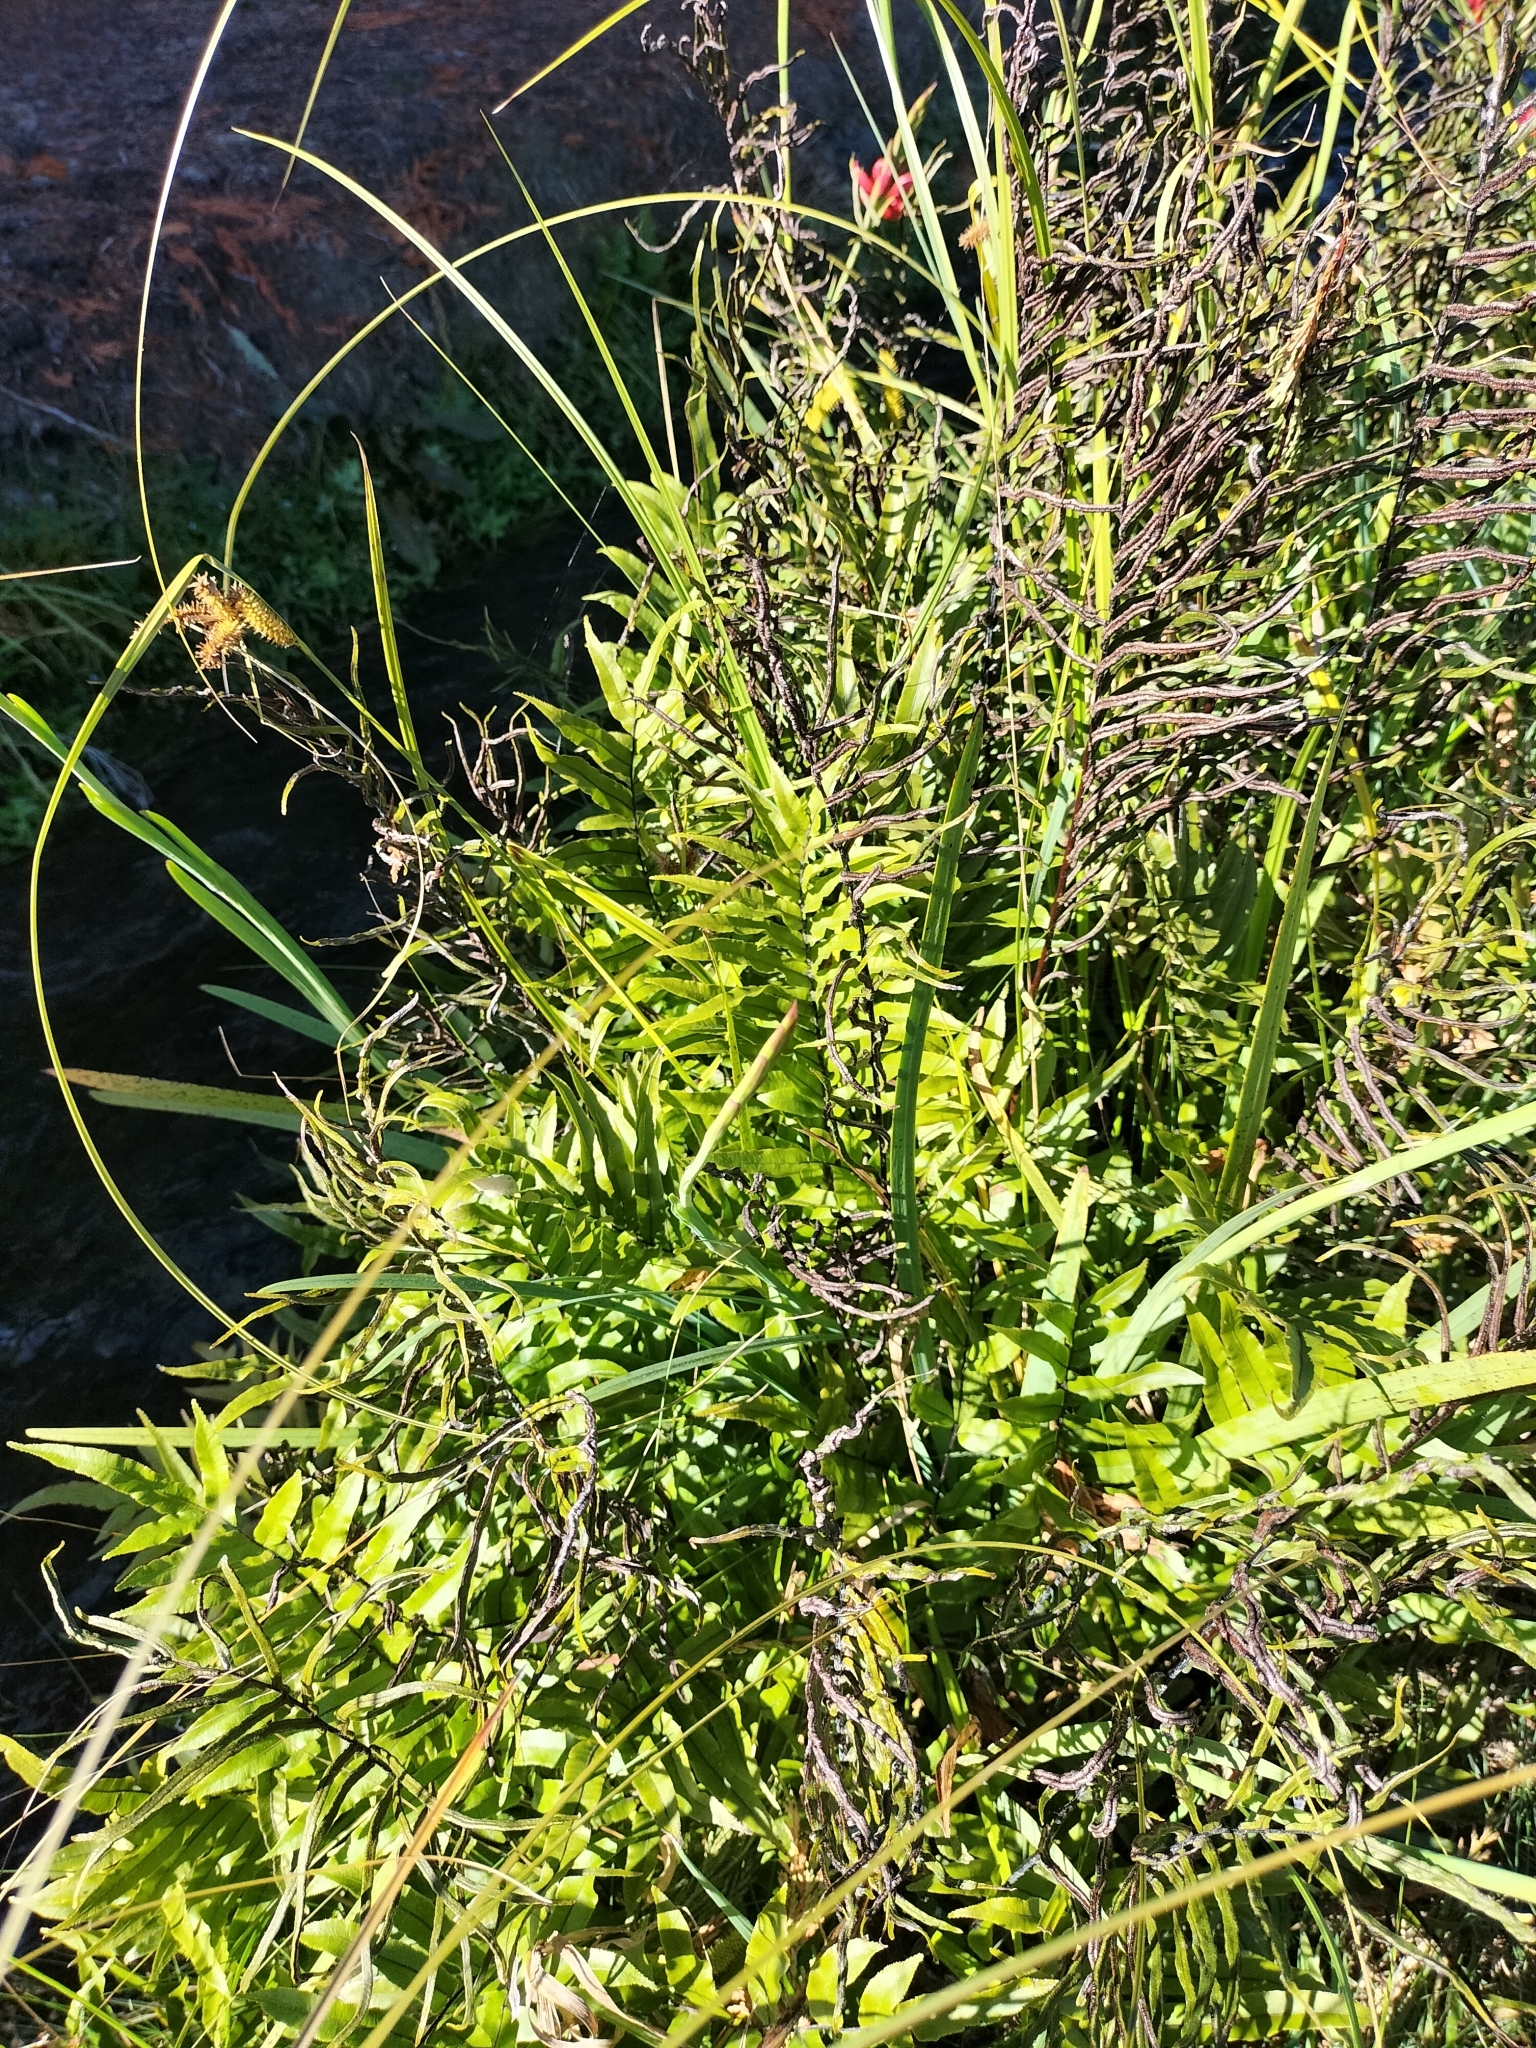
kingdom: Plantae
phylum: Tracheophyta
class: Polypodiopsida
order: Polypodiales
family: Blechnaceae
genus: Parablechnum
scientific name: Parablechnum minus
